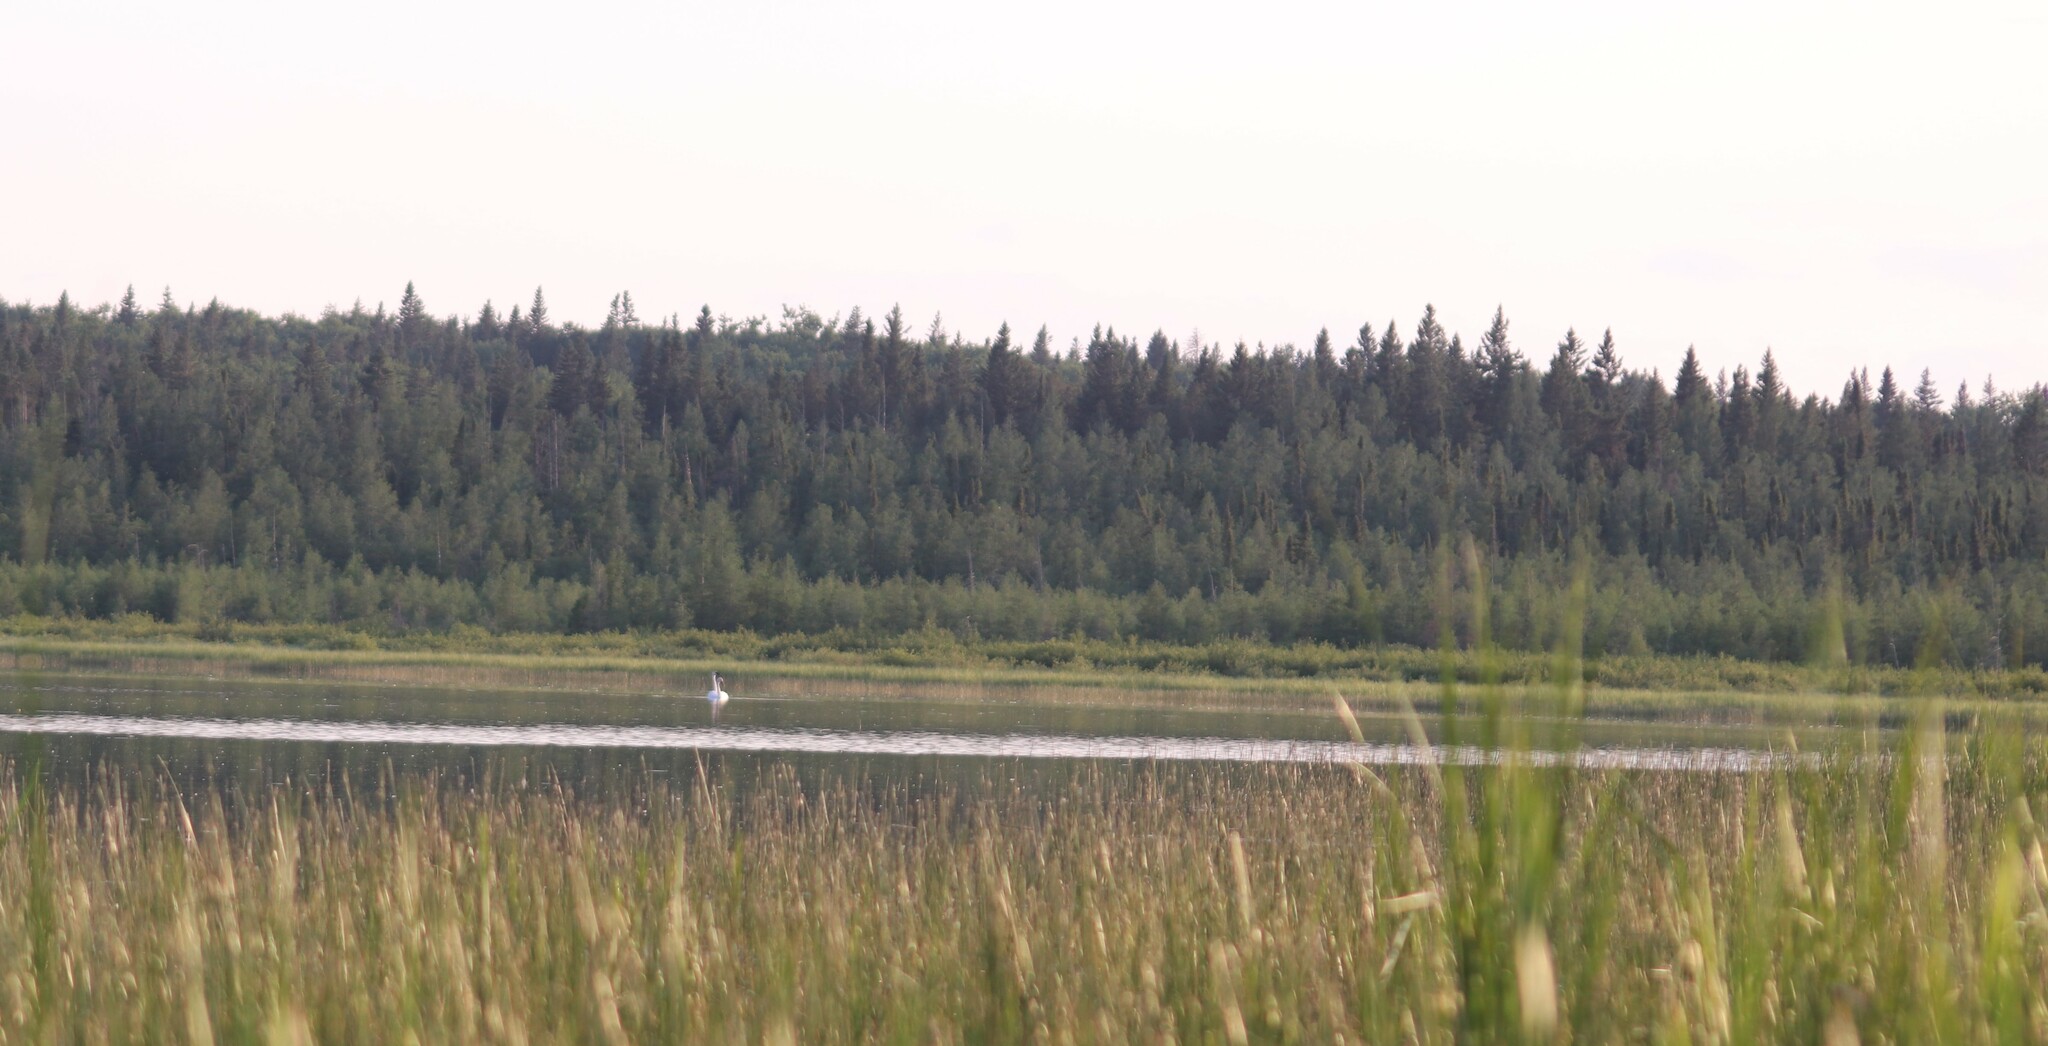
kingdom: Animalia
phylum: Chordata
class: Aves
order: Anseriformes
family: Anatidae
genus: Cygnus
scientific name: Cygnus buccinator
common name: Trumpeter swan
